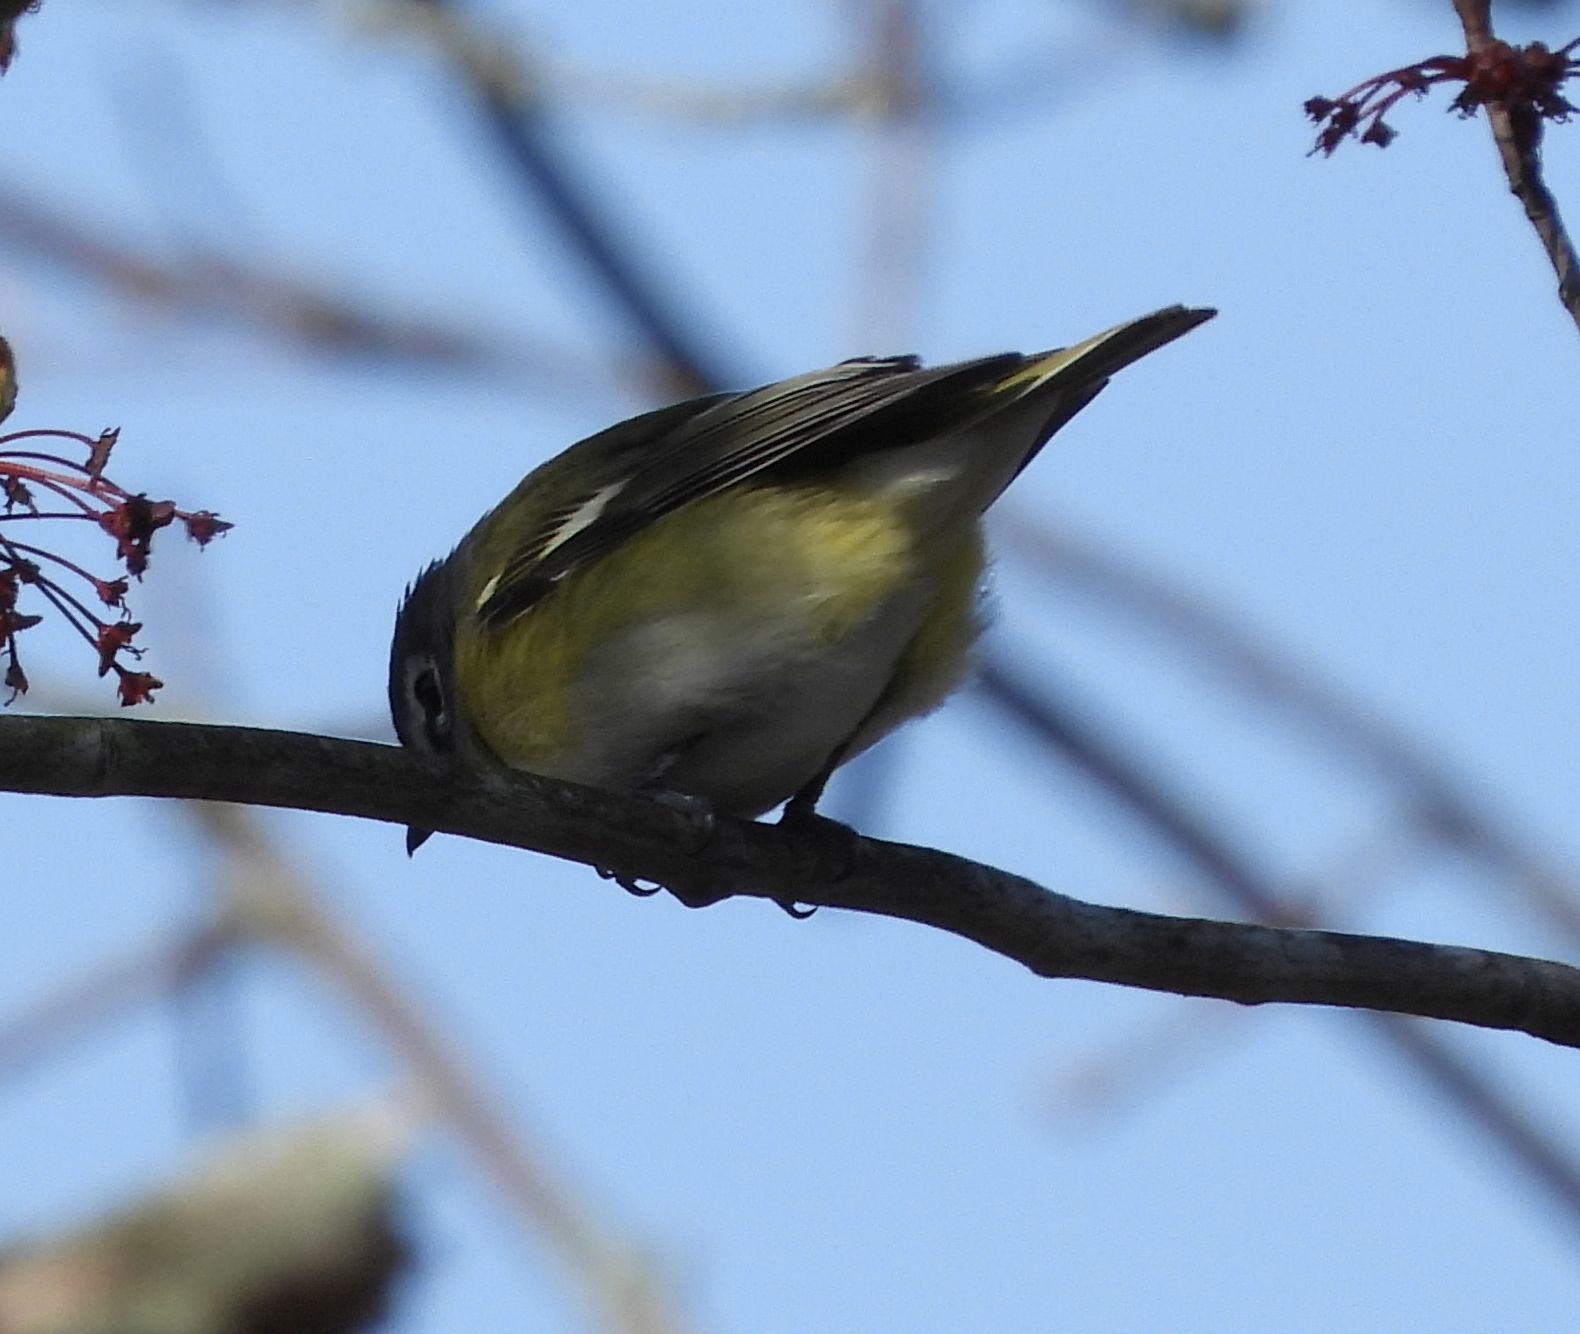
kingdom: Animalia
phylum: Chordata
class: Aves
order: Passeriformes
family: Vireonidae
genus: Vireo
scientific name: Vireo solitarius
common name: Blue-headed vireo
